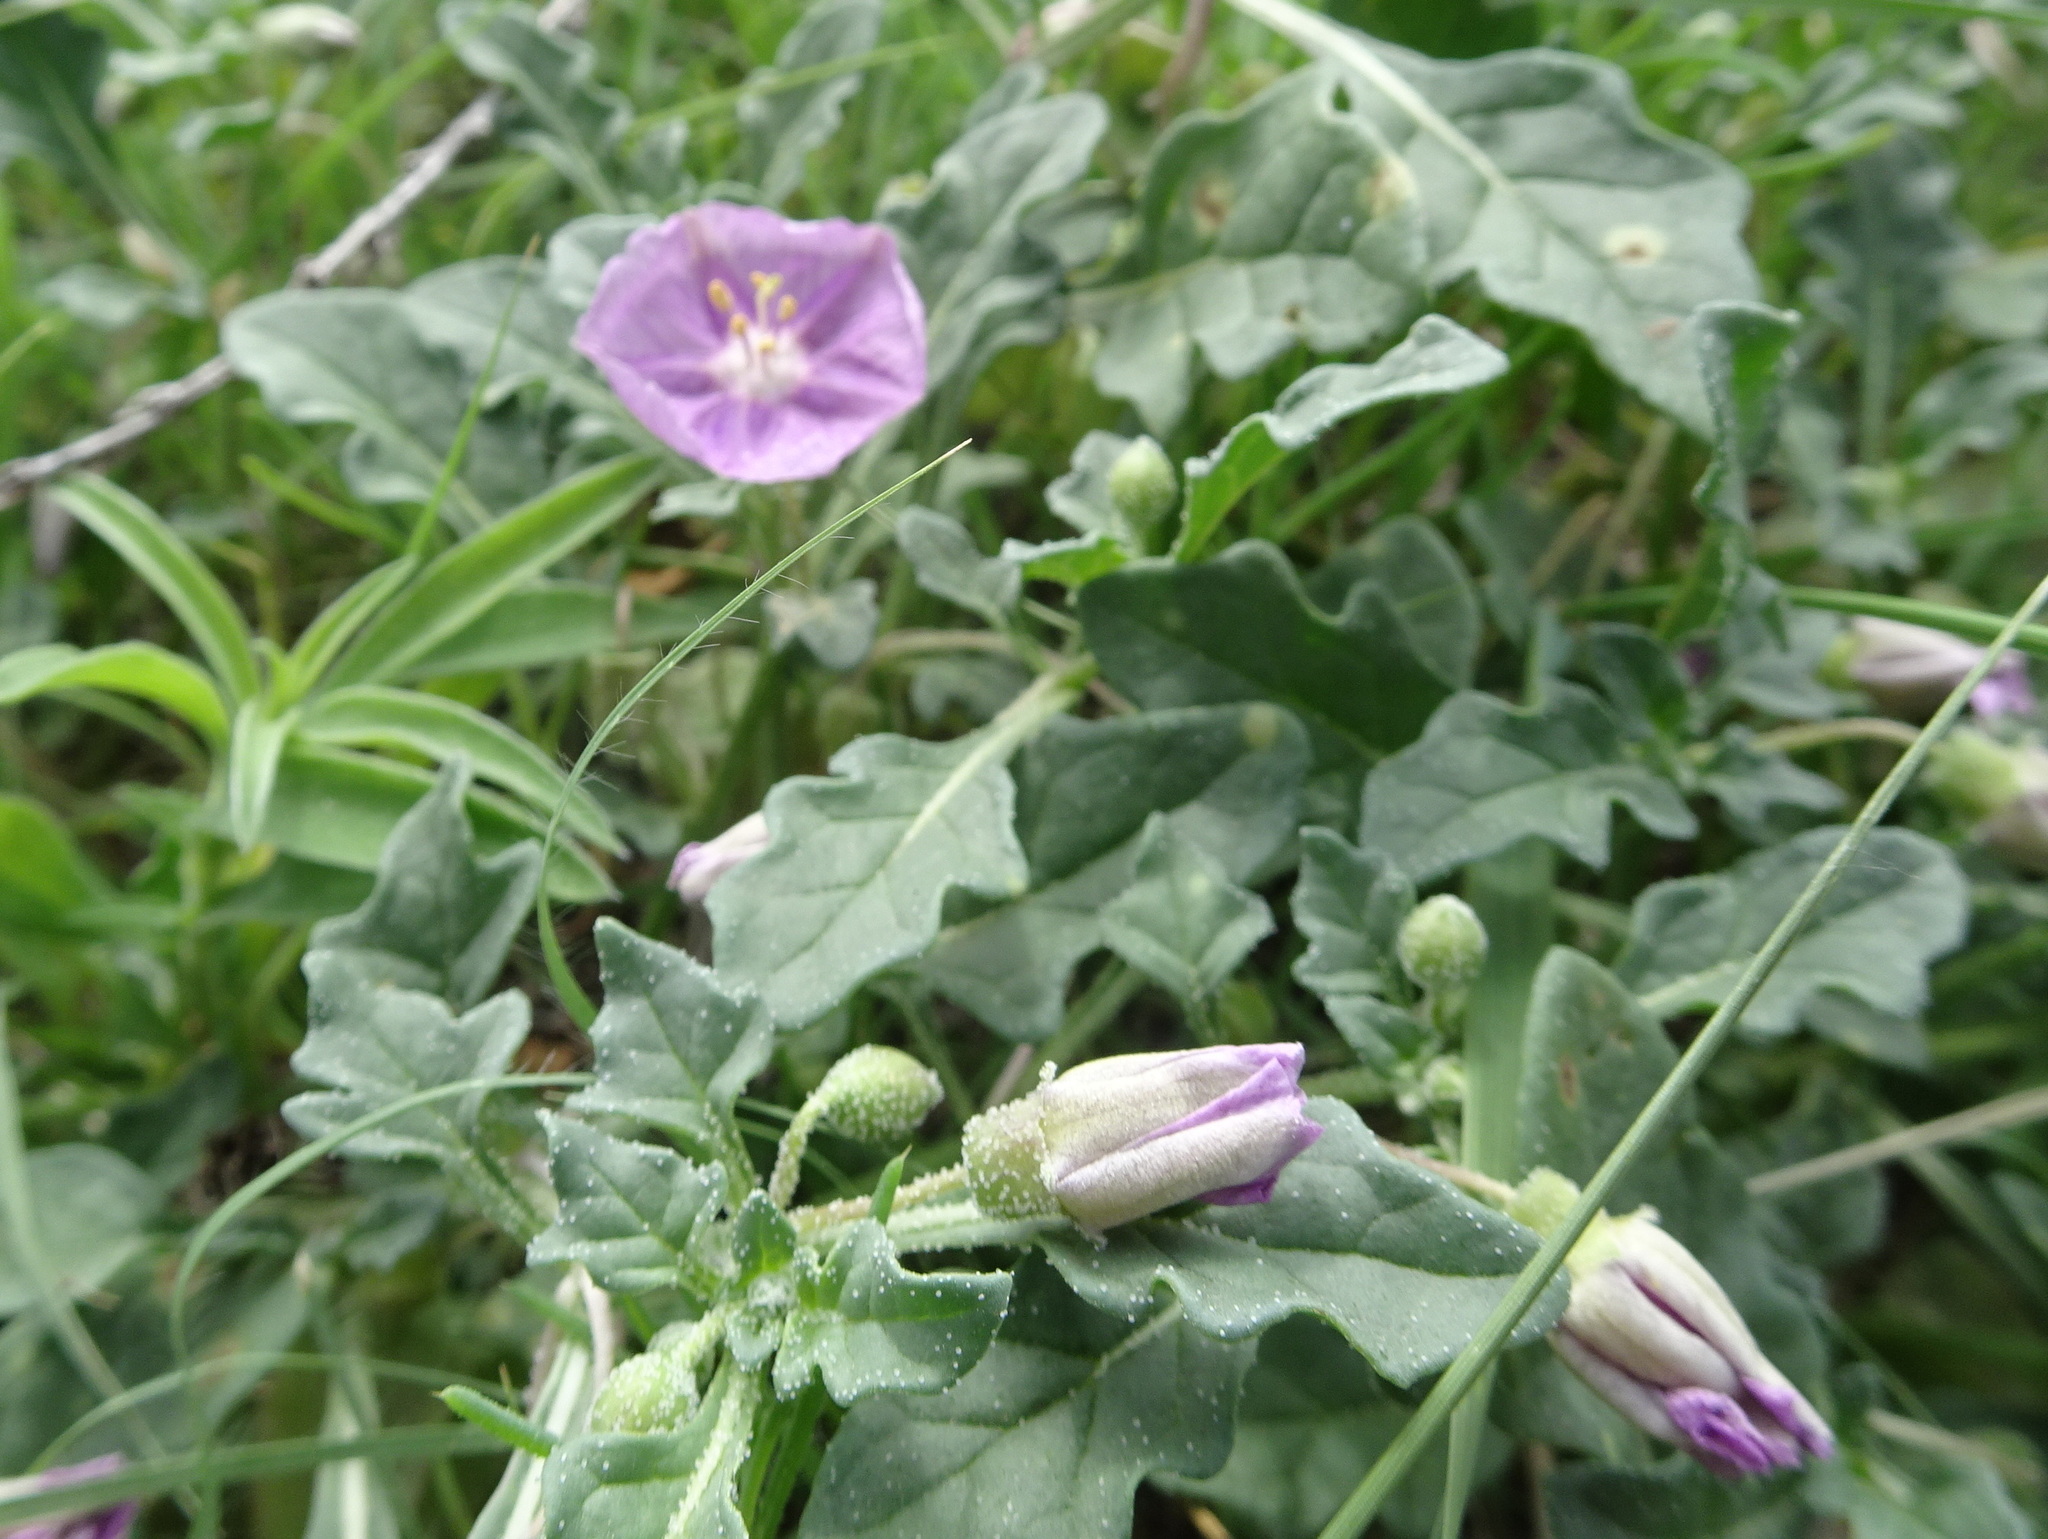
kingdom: Plantae
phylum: Tracheophyta
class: Magnoliopsida
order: Solanales
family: Solanaceae
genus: Quincula
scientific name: Quincula lobata
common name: Purple-ground-cherry
